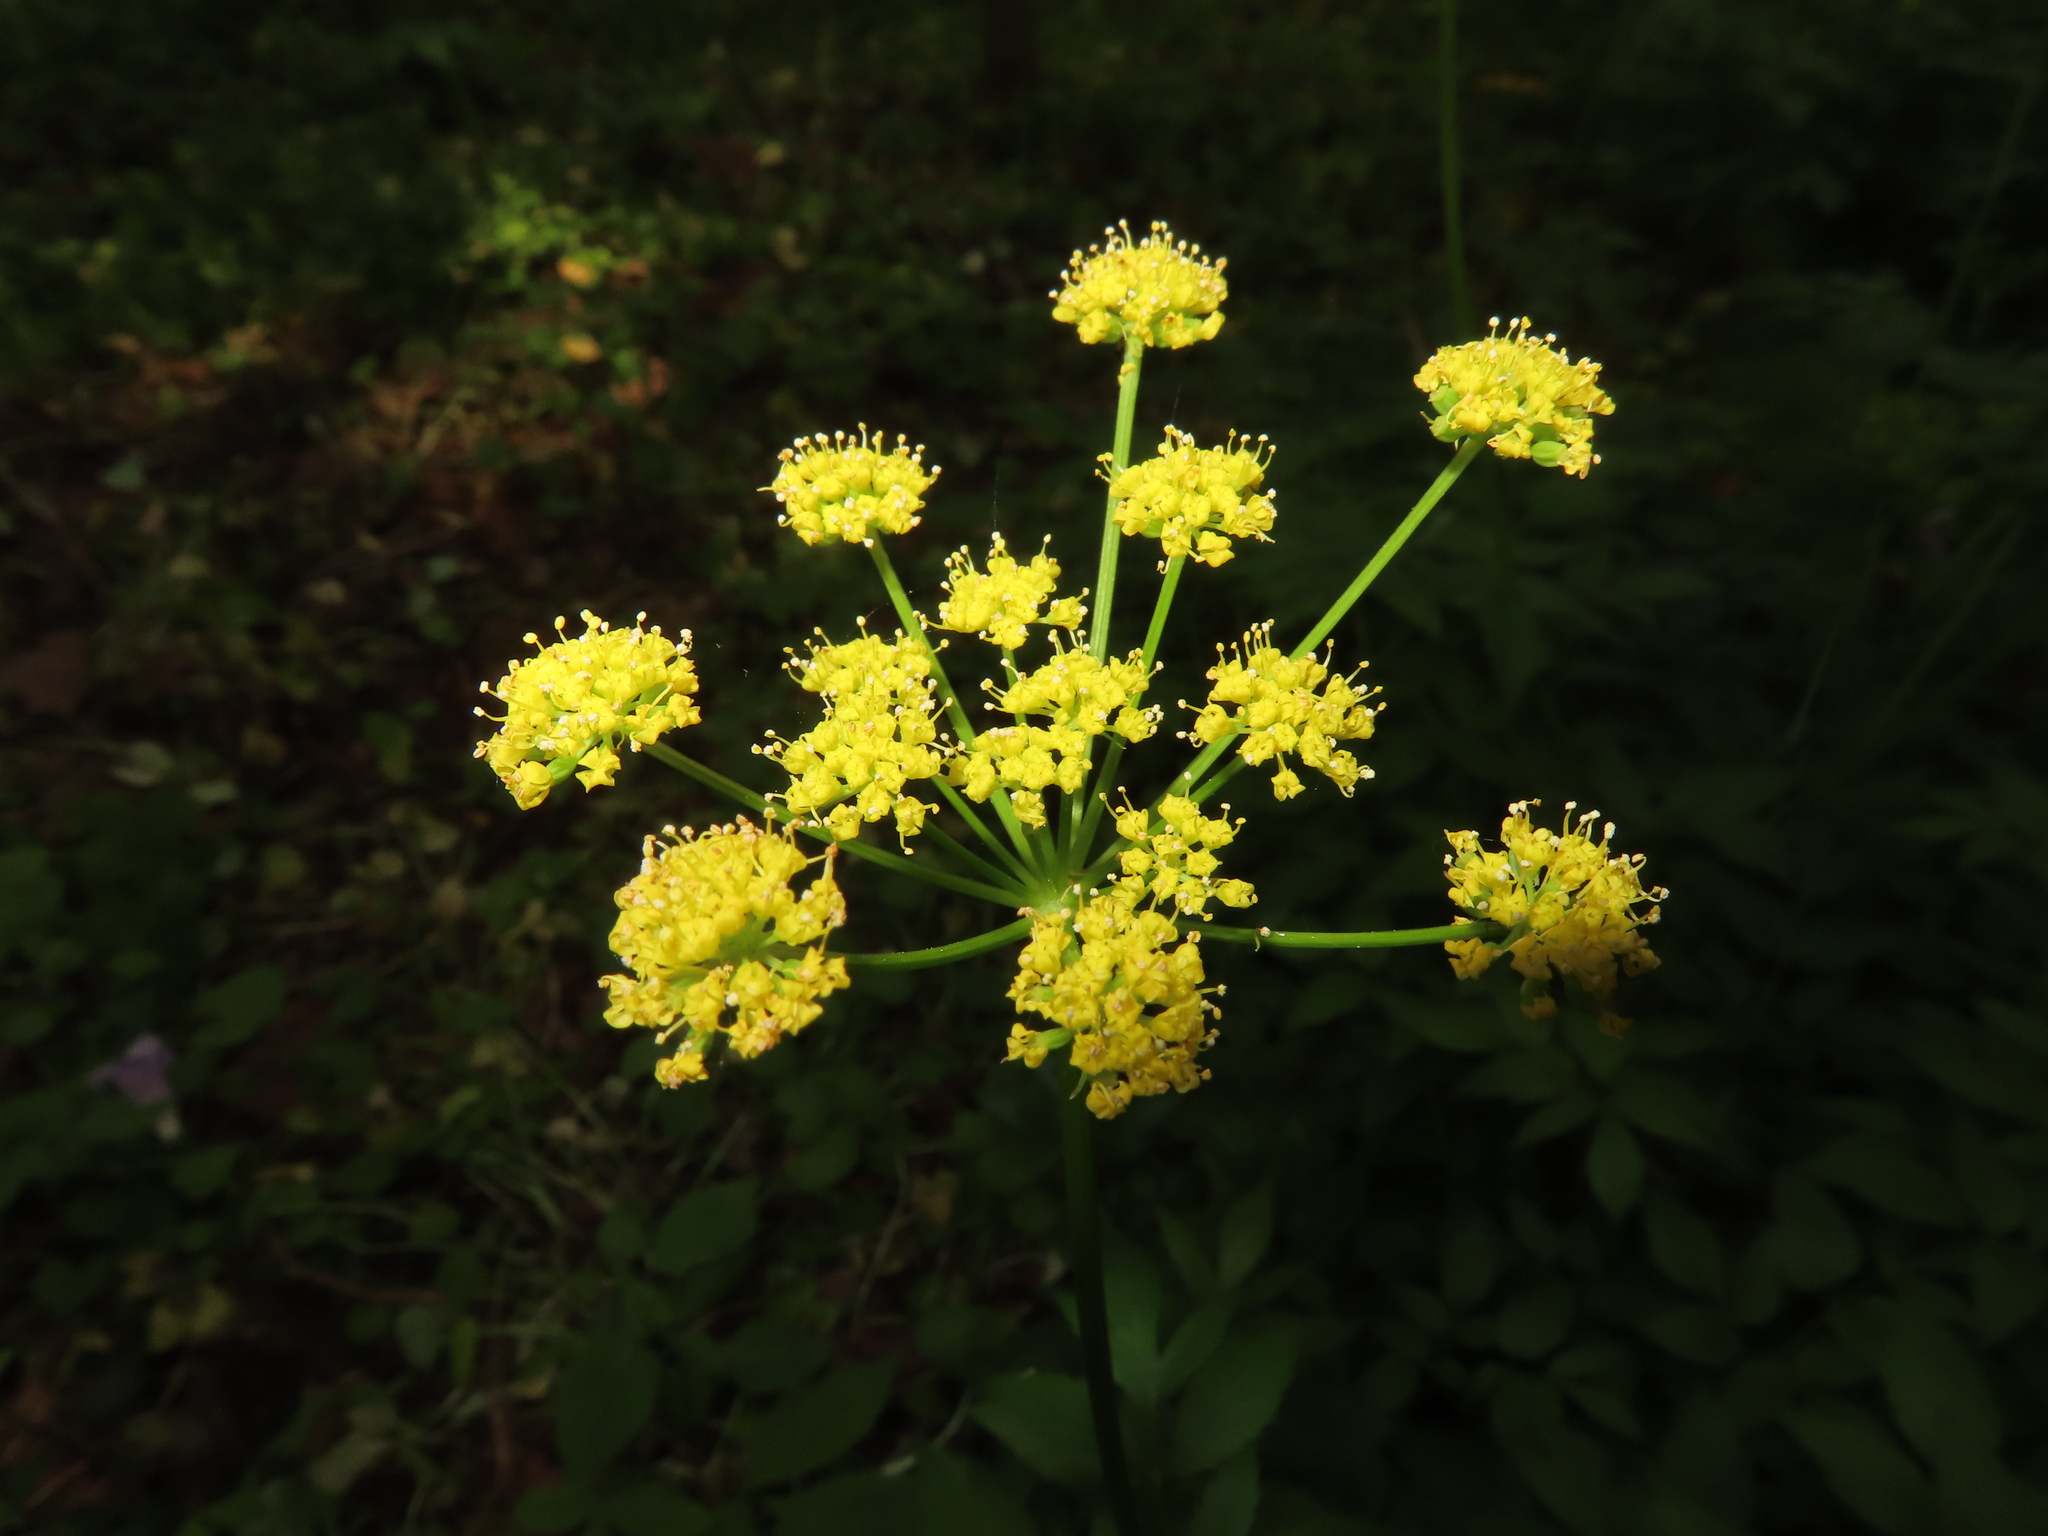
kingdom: Plantae
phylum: Tracheophyta
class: Magnoliopsida
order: Apiales
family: Apiaceae
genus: Zizia
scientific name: Zizia aurea
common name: Golden alexanders
